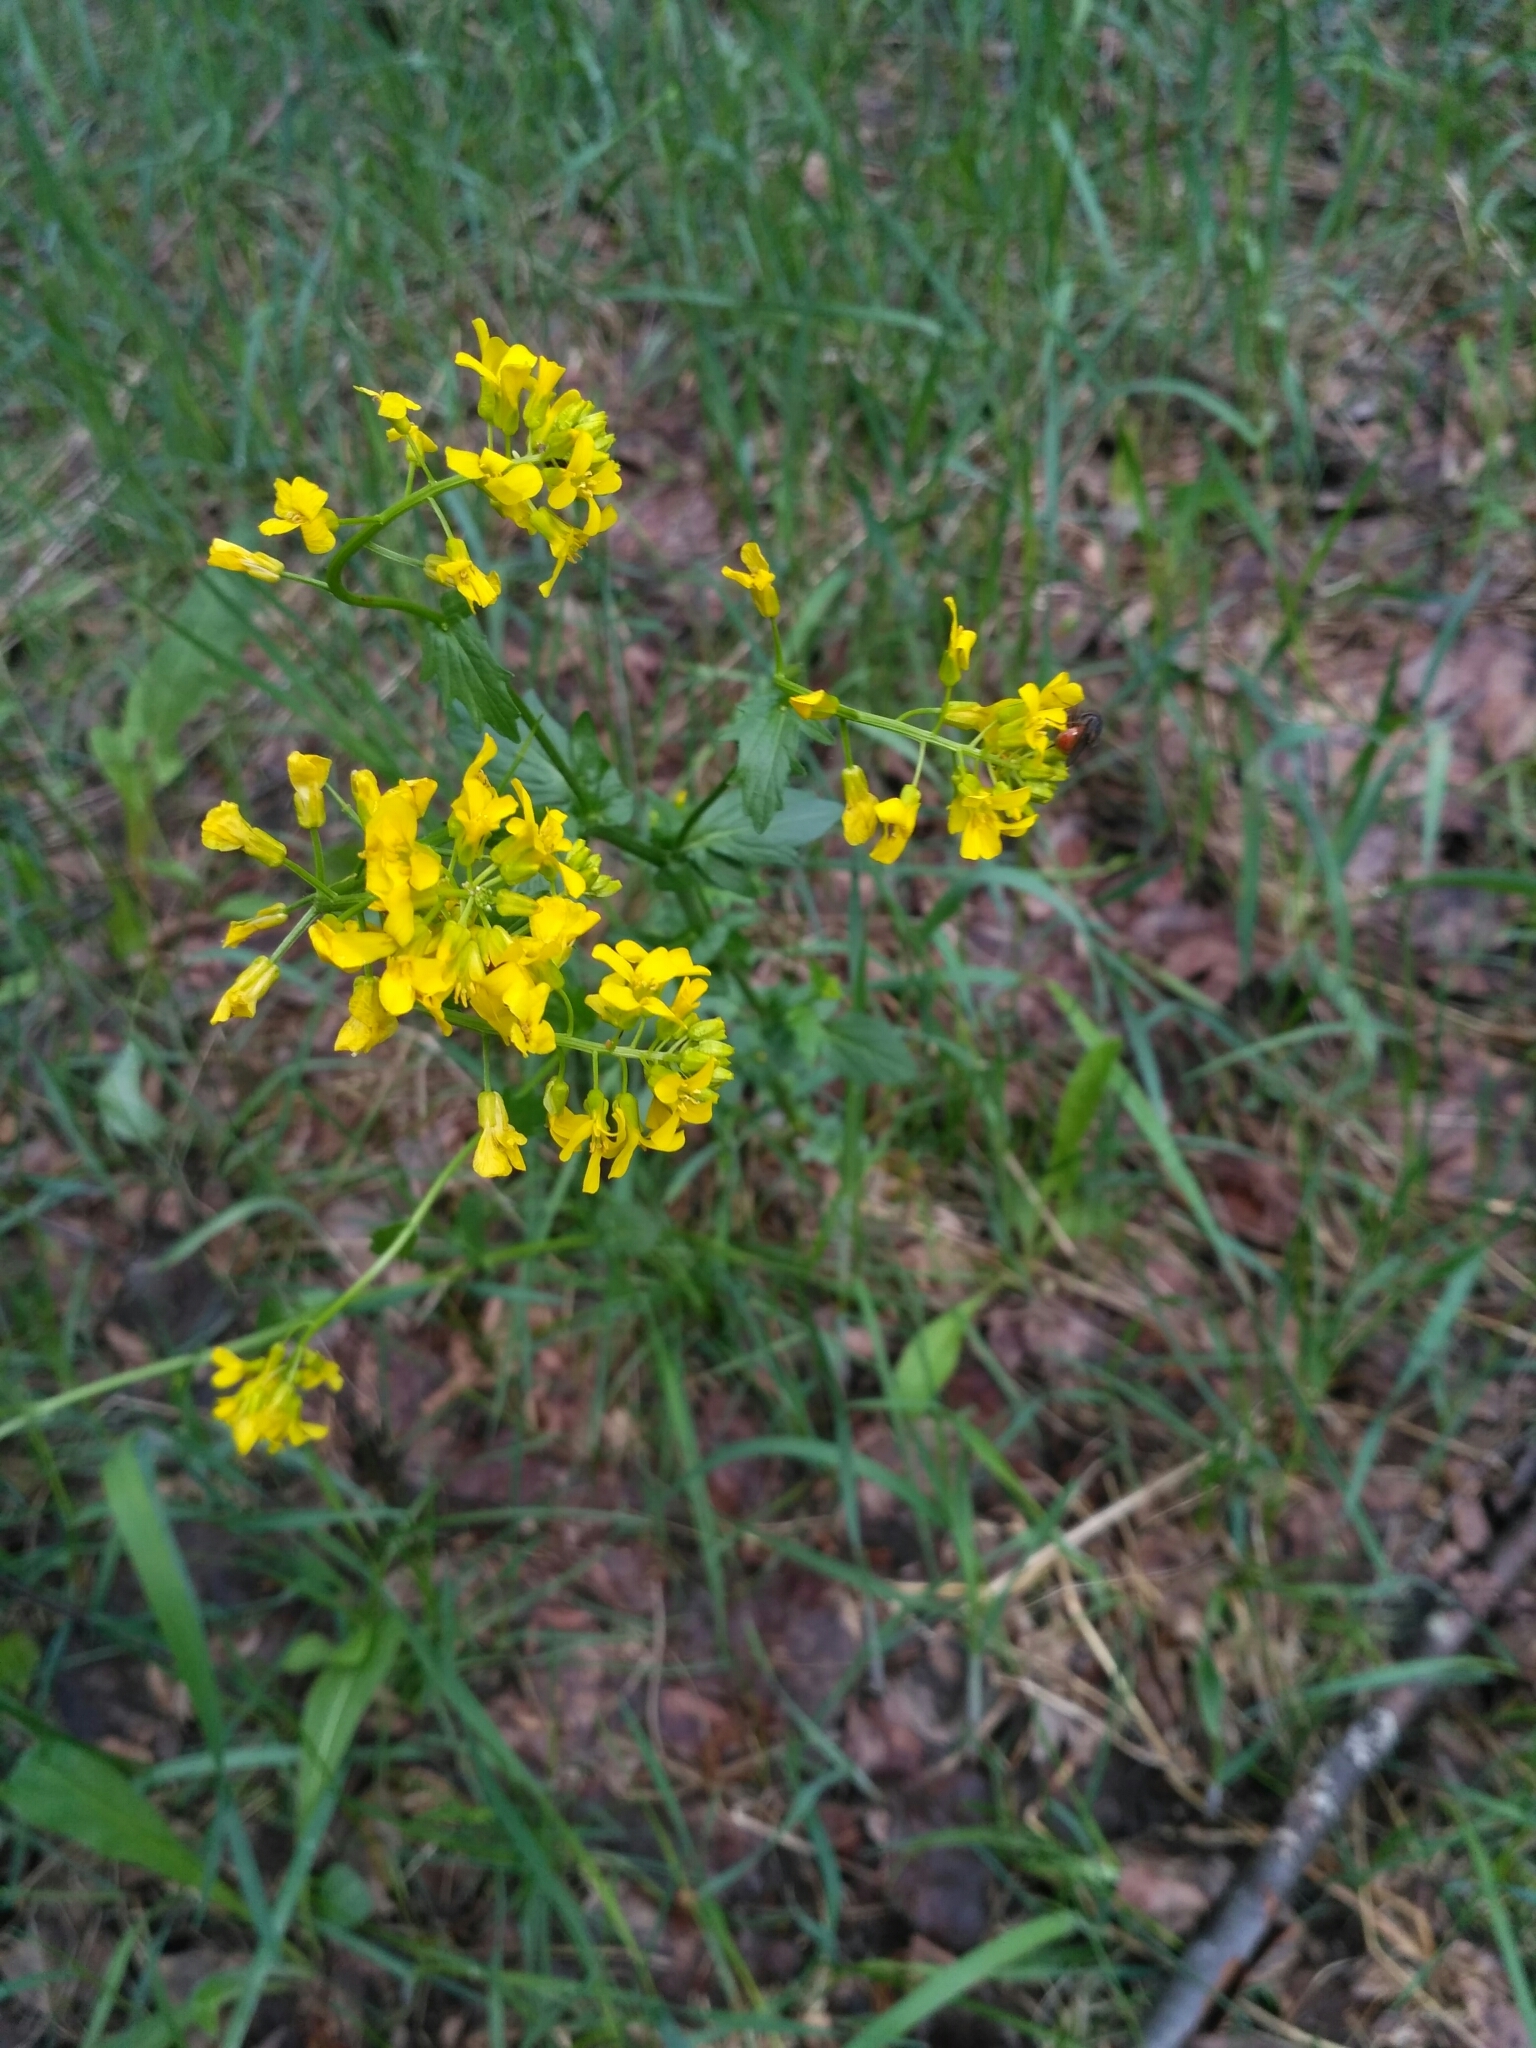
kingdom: Plantae
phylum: Tracheophyta
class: Magnoliopsida
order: Brassicales
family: Brassicaceae
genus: Barbarea
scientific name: Barbarea vulgaris
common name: Cressy-greens
